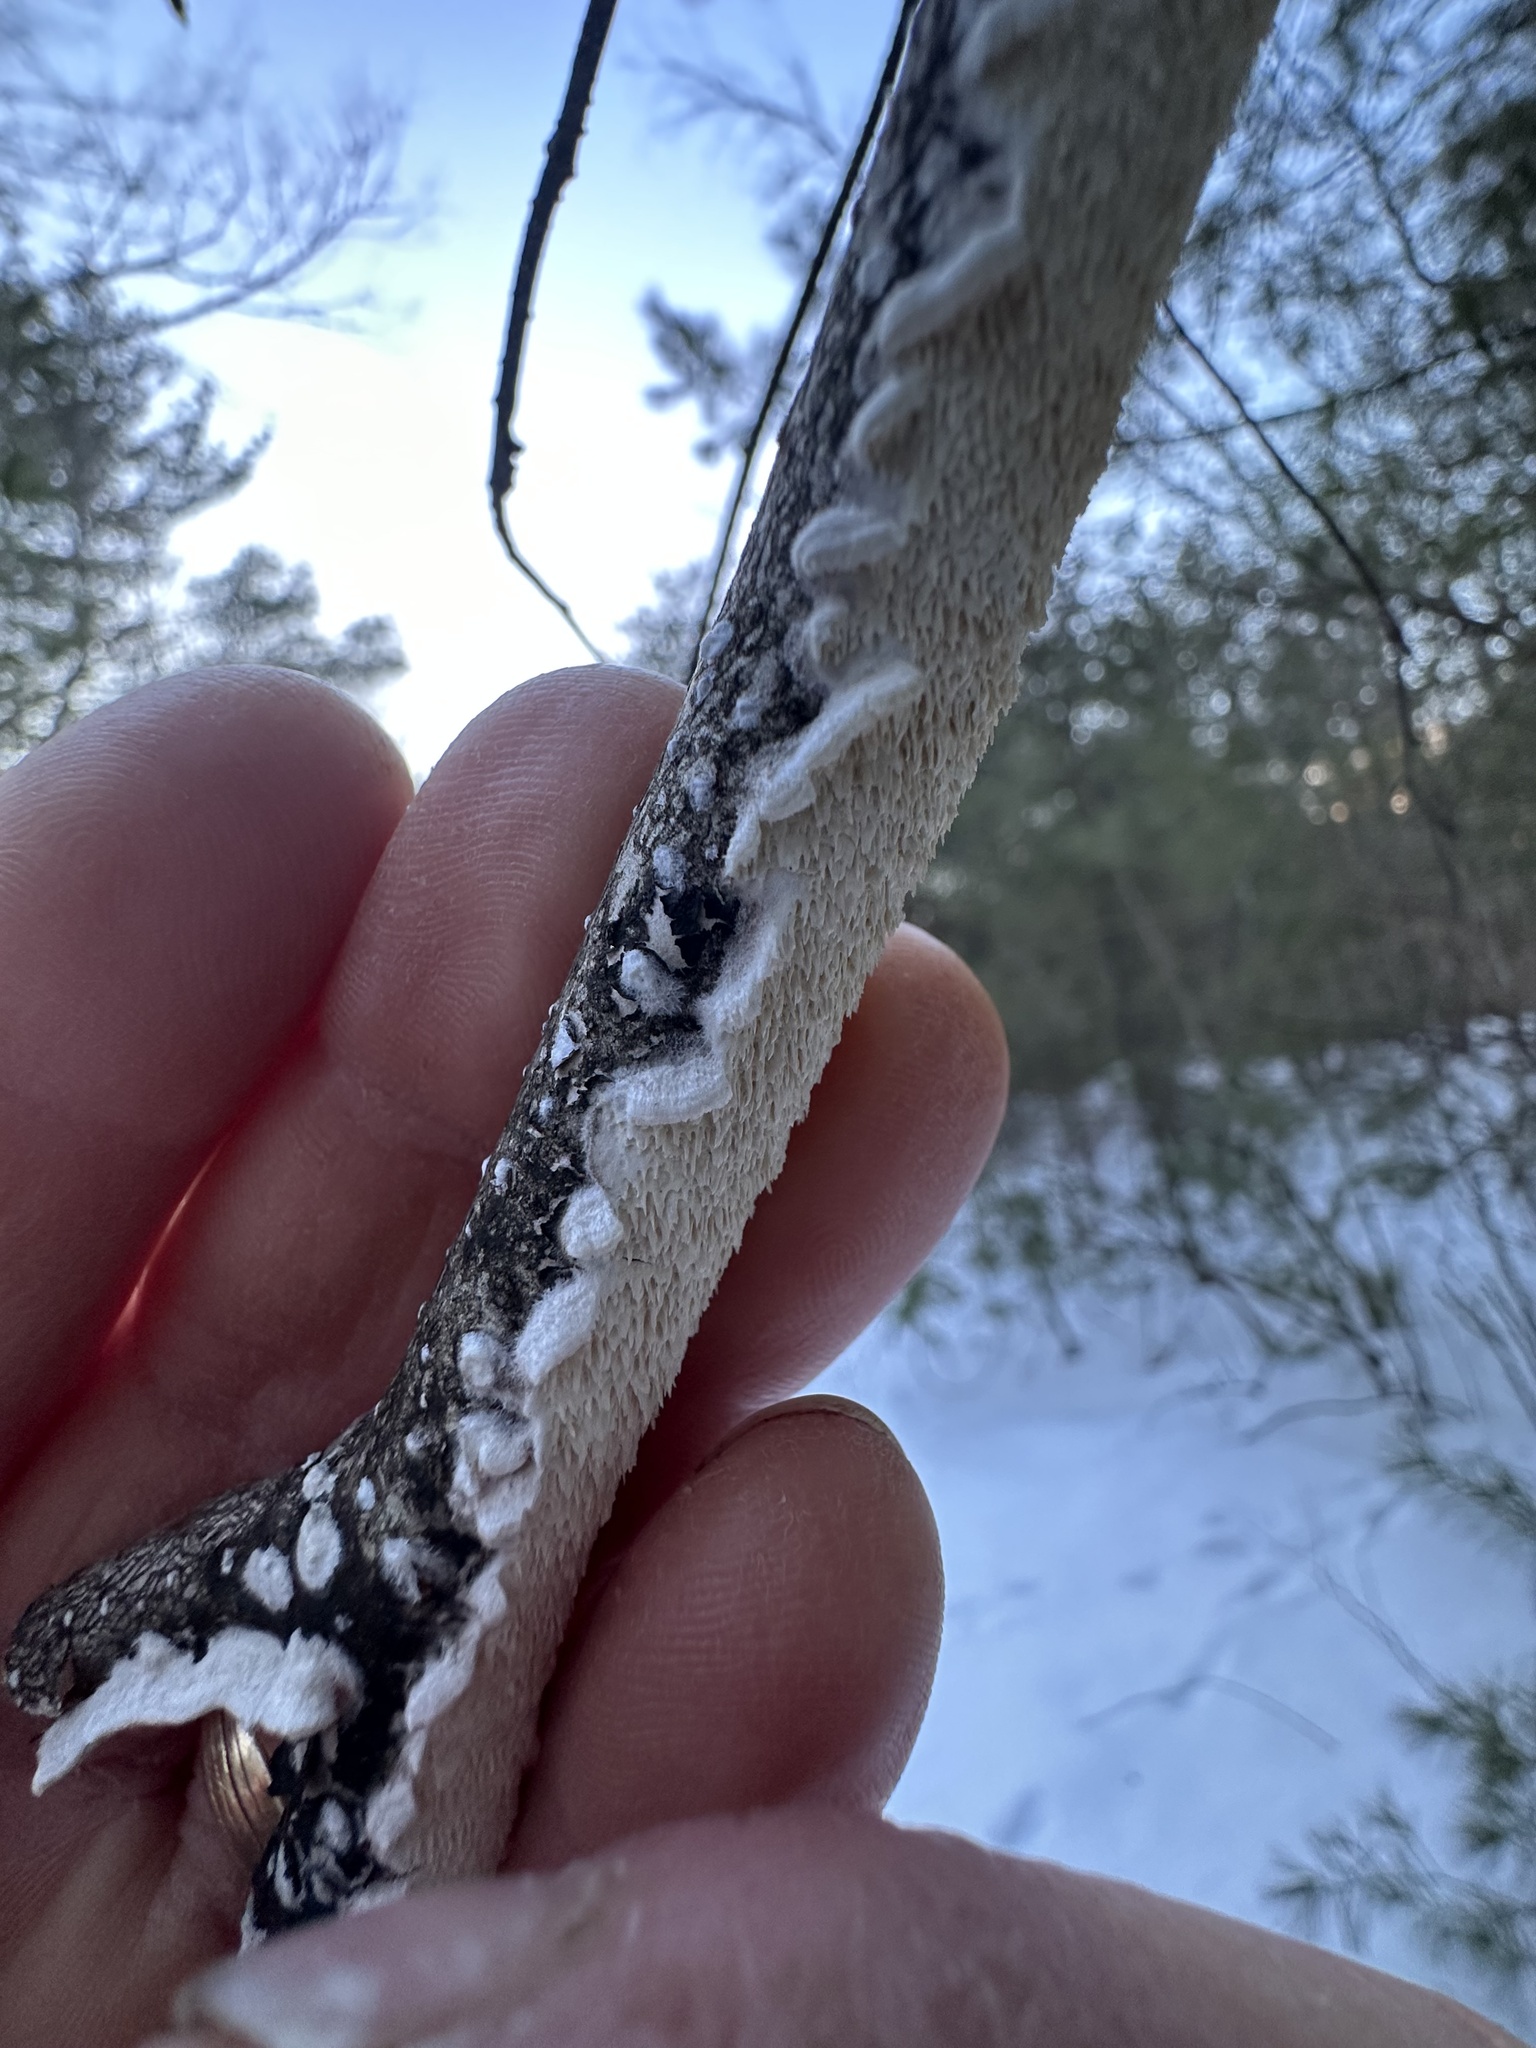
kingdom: Fungi
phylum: Basidiomycota
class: Agaricomycetes
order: Polyporales
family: Irpicaceae
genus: Irpex
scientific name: Irpex lacteus
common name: Milk-white toothed polypore
